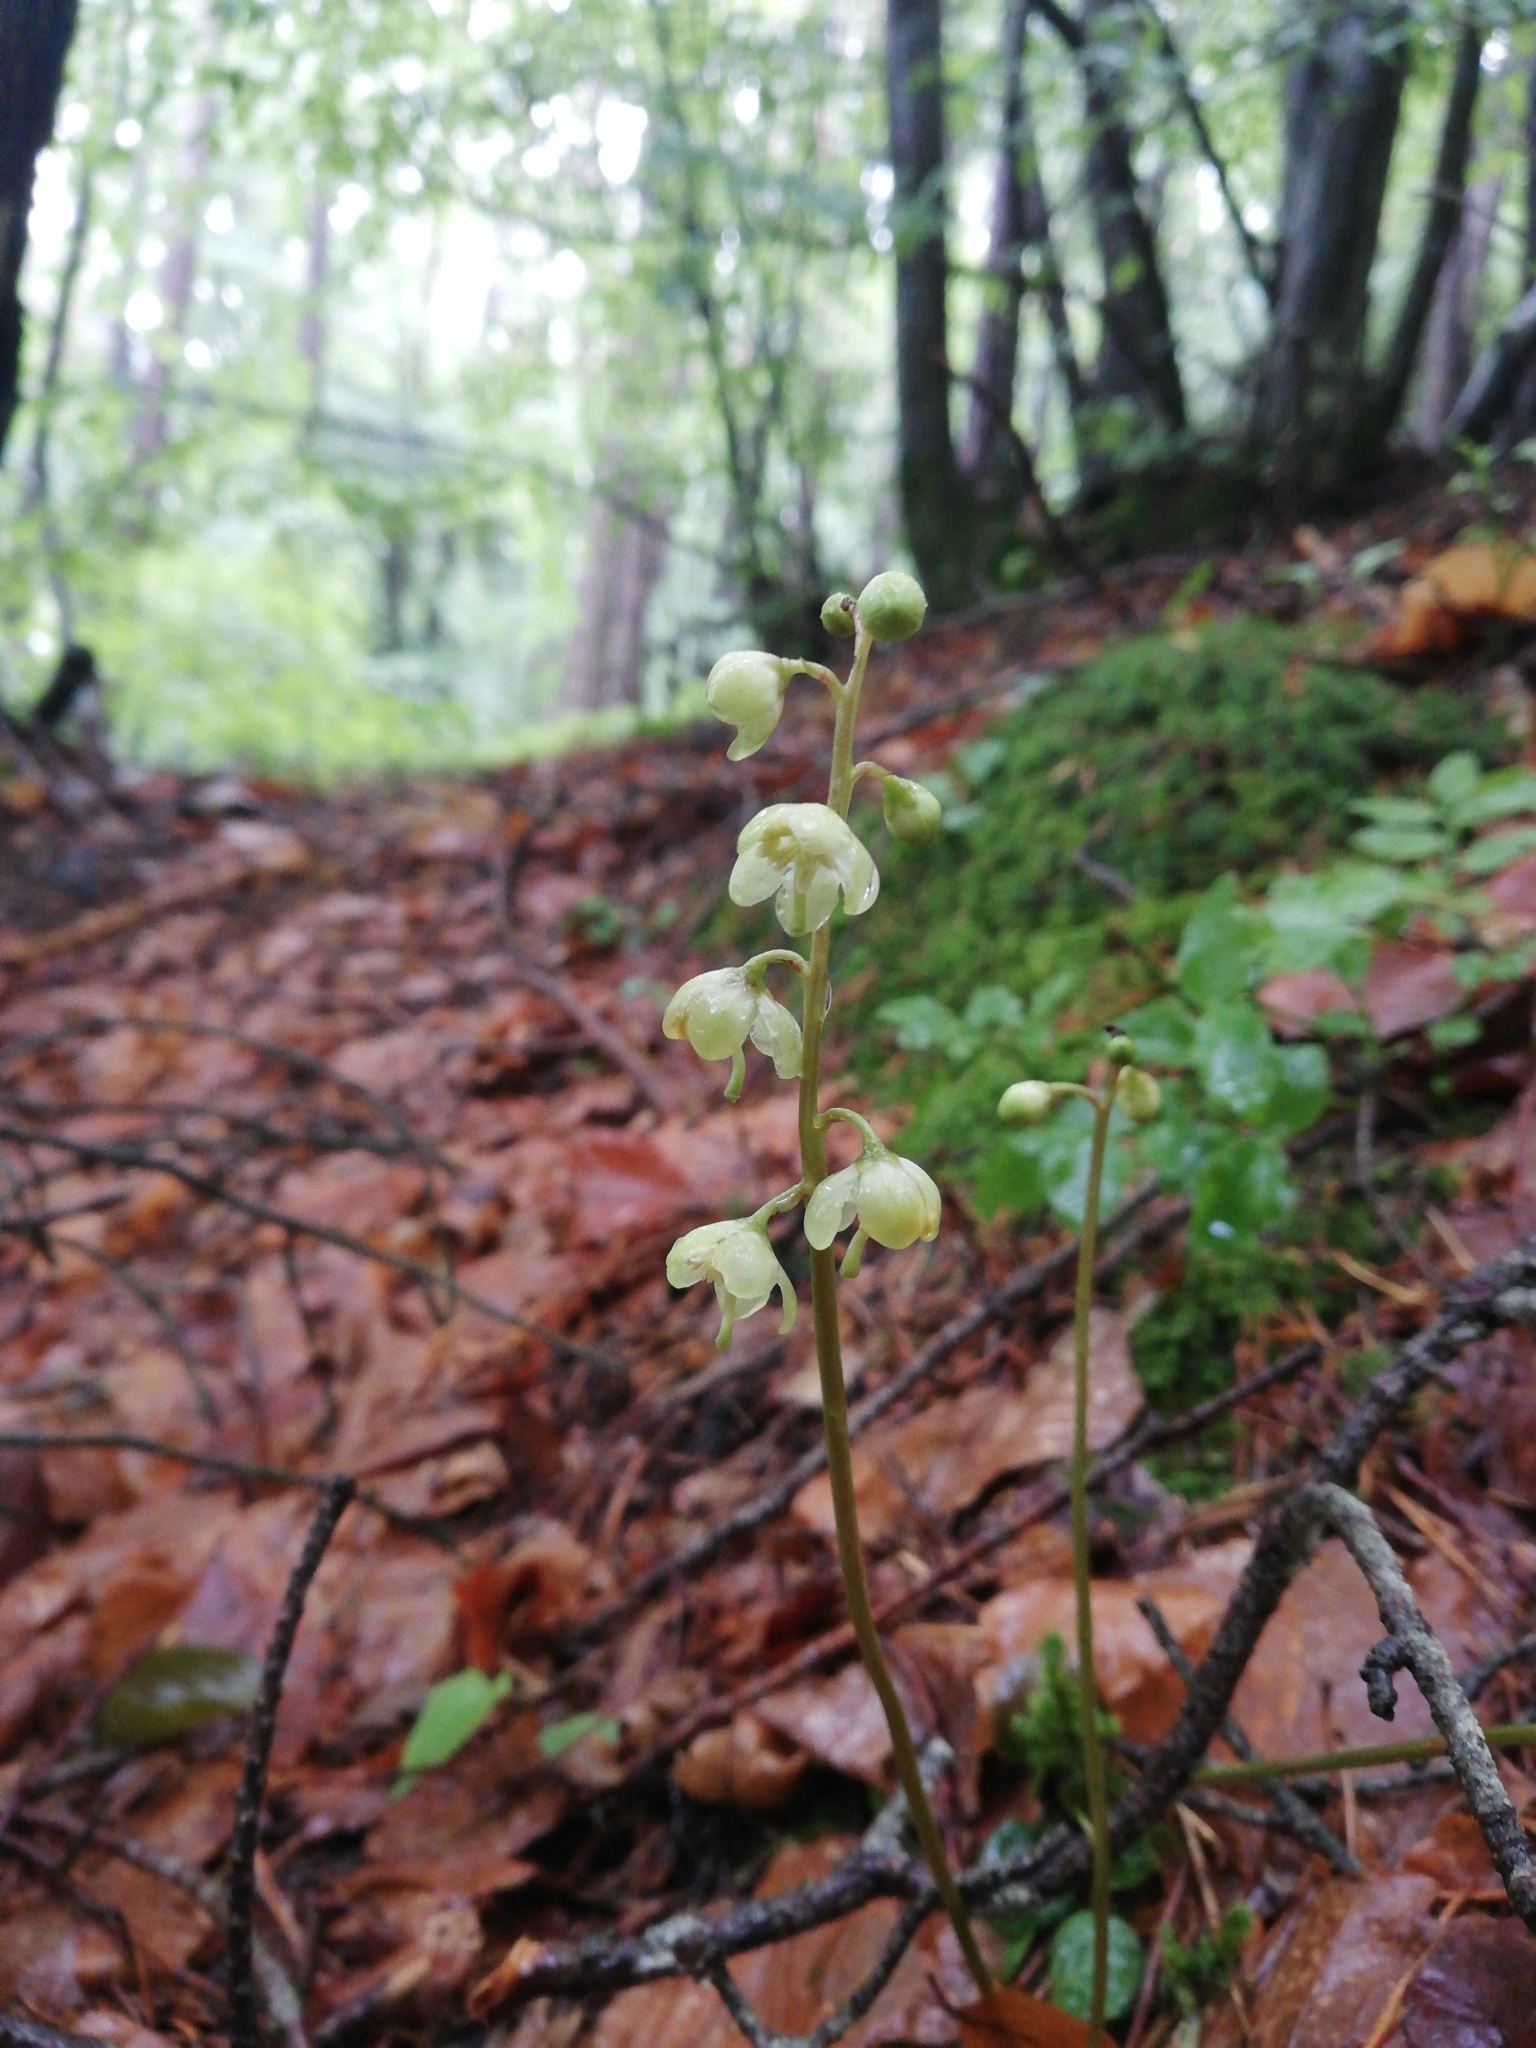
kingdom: Plantae
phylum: Tracheophyta
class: Magnoliopsida
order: Ericales
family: Ericaceae
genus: Pyrola
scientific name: Pyrola chlorantha
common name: Green wintergreen
